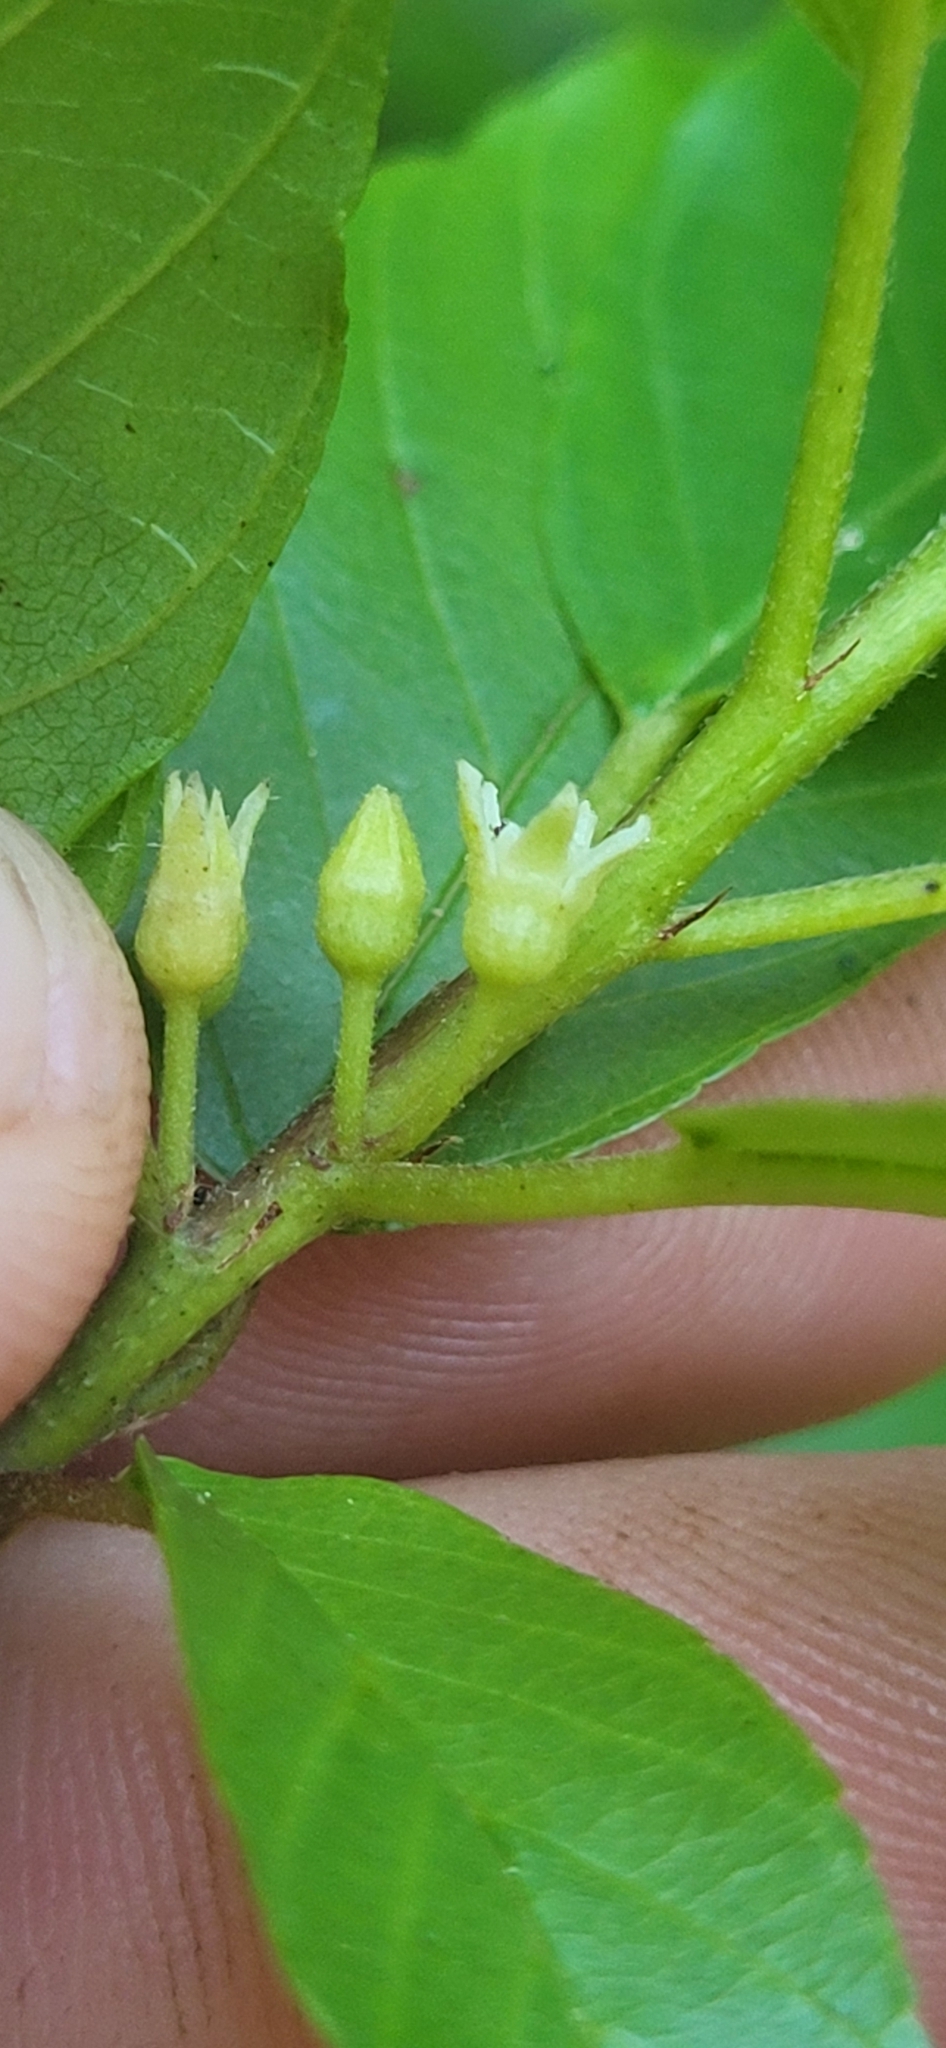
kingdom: Plantae
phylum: Tracheophyta
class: Magnoliopsida
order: Rosales
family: Rhamnaceae
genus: Frangula
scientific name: Frangula caroliniana
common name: Carolina buckthorn
